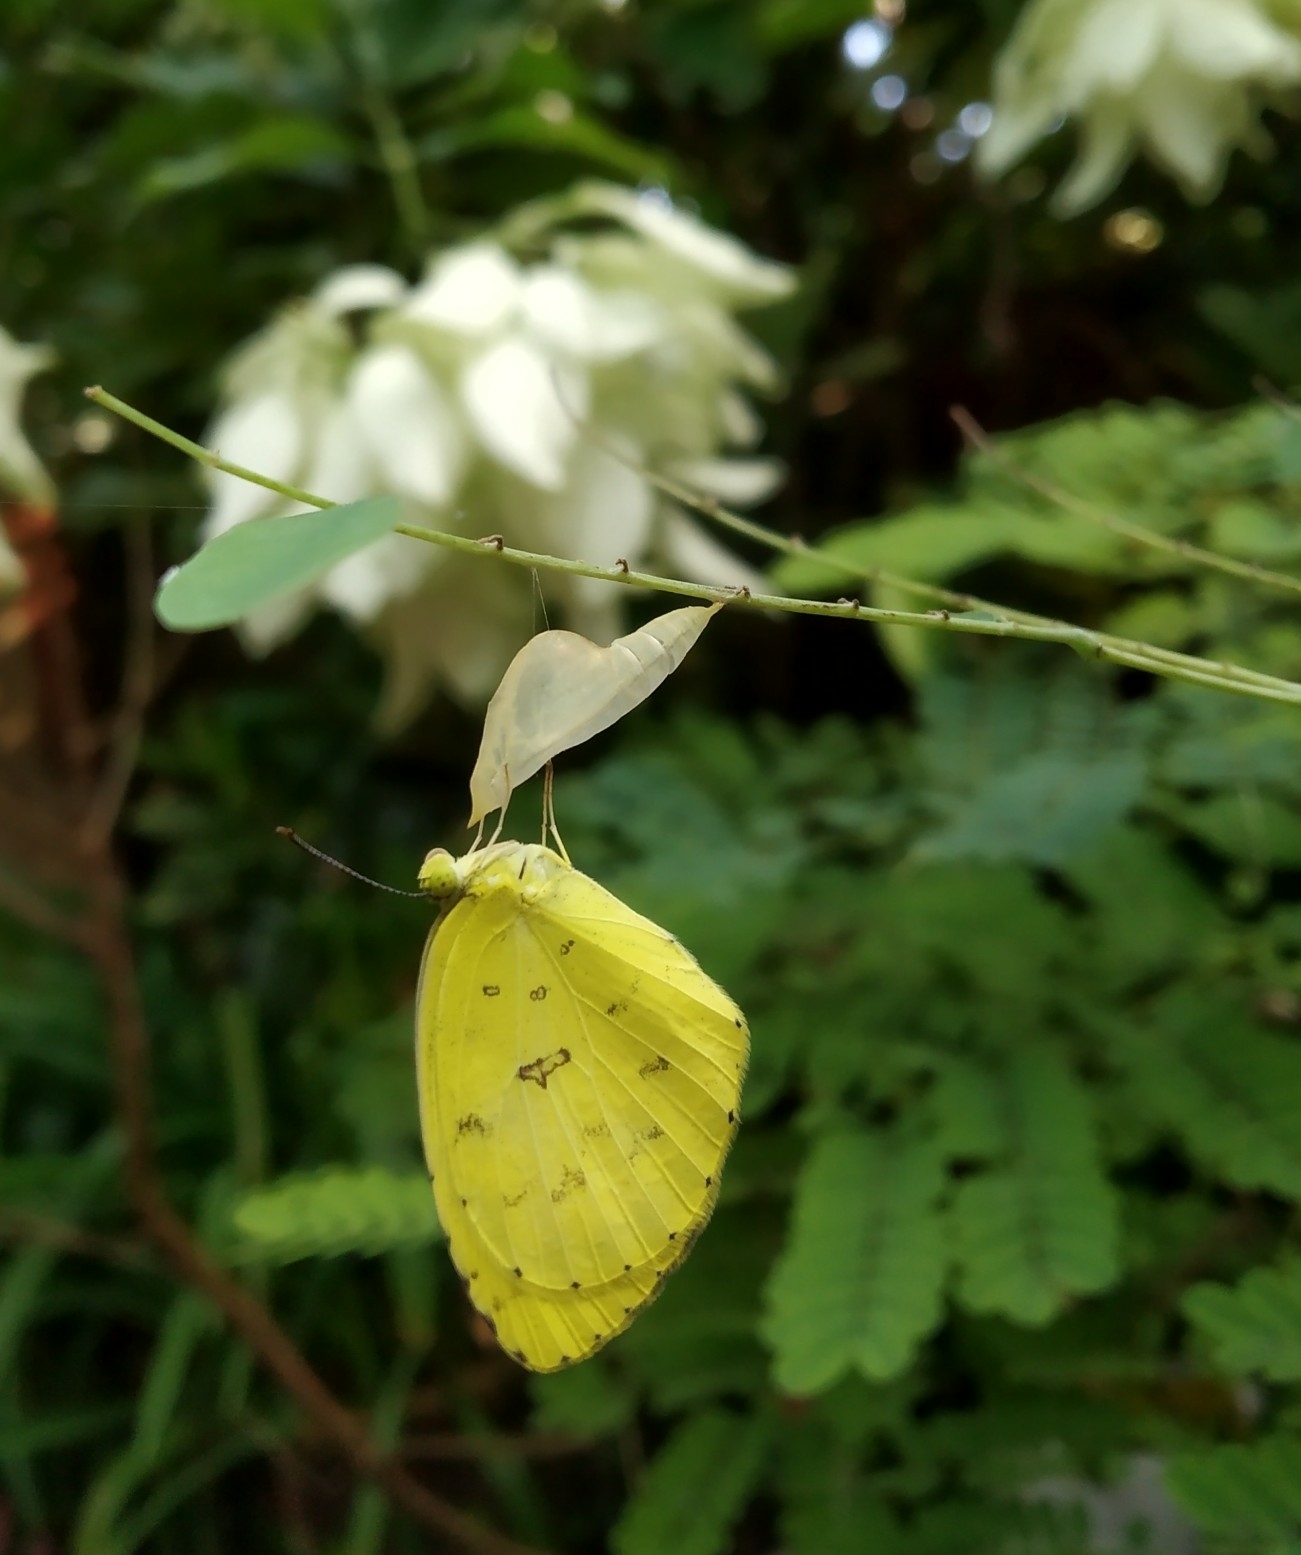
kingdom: Animalia
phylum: Arthropoda
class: Insecta
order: Lepidoptera
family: Pieridae
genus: Eurema
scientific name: Eurema hecabe
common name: Pale grass yellow
